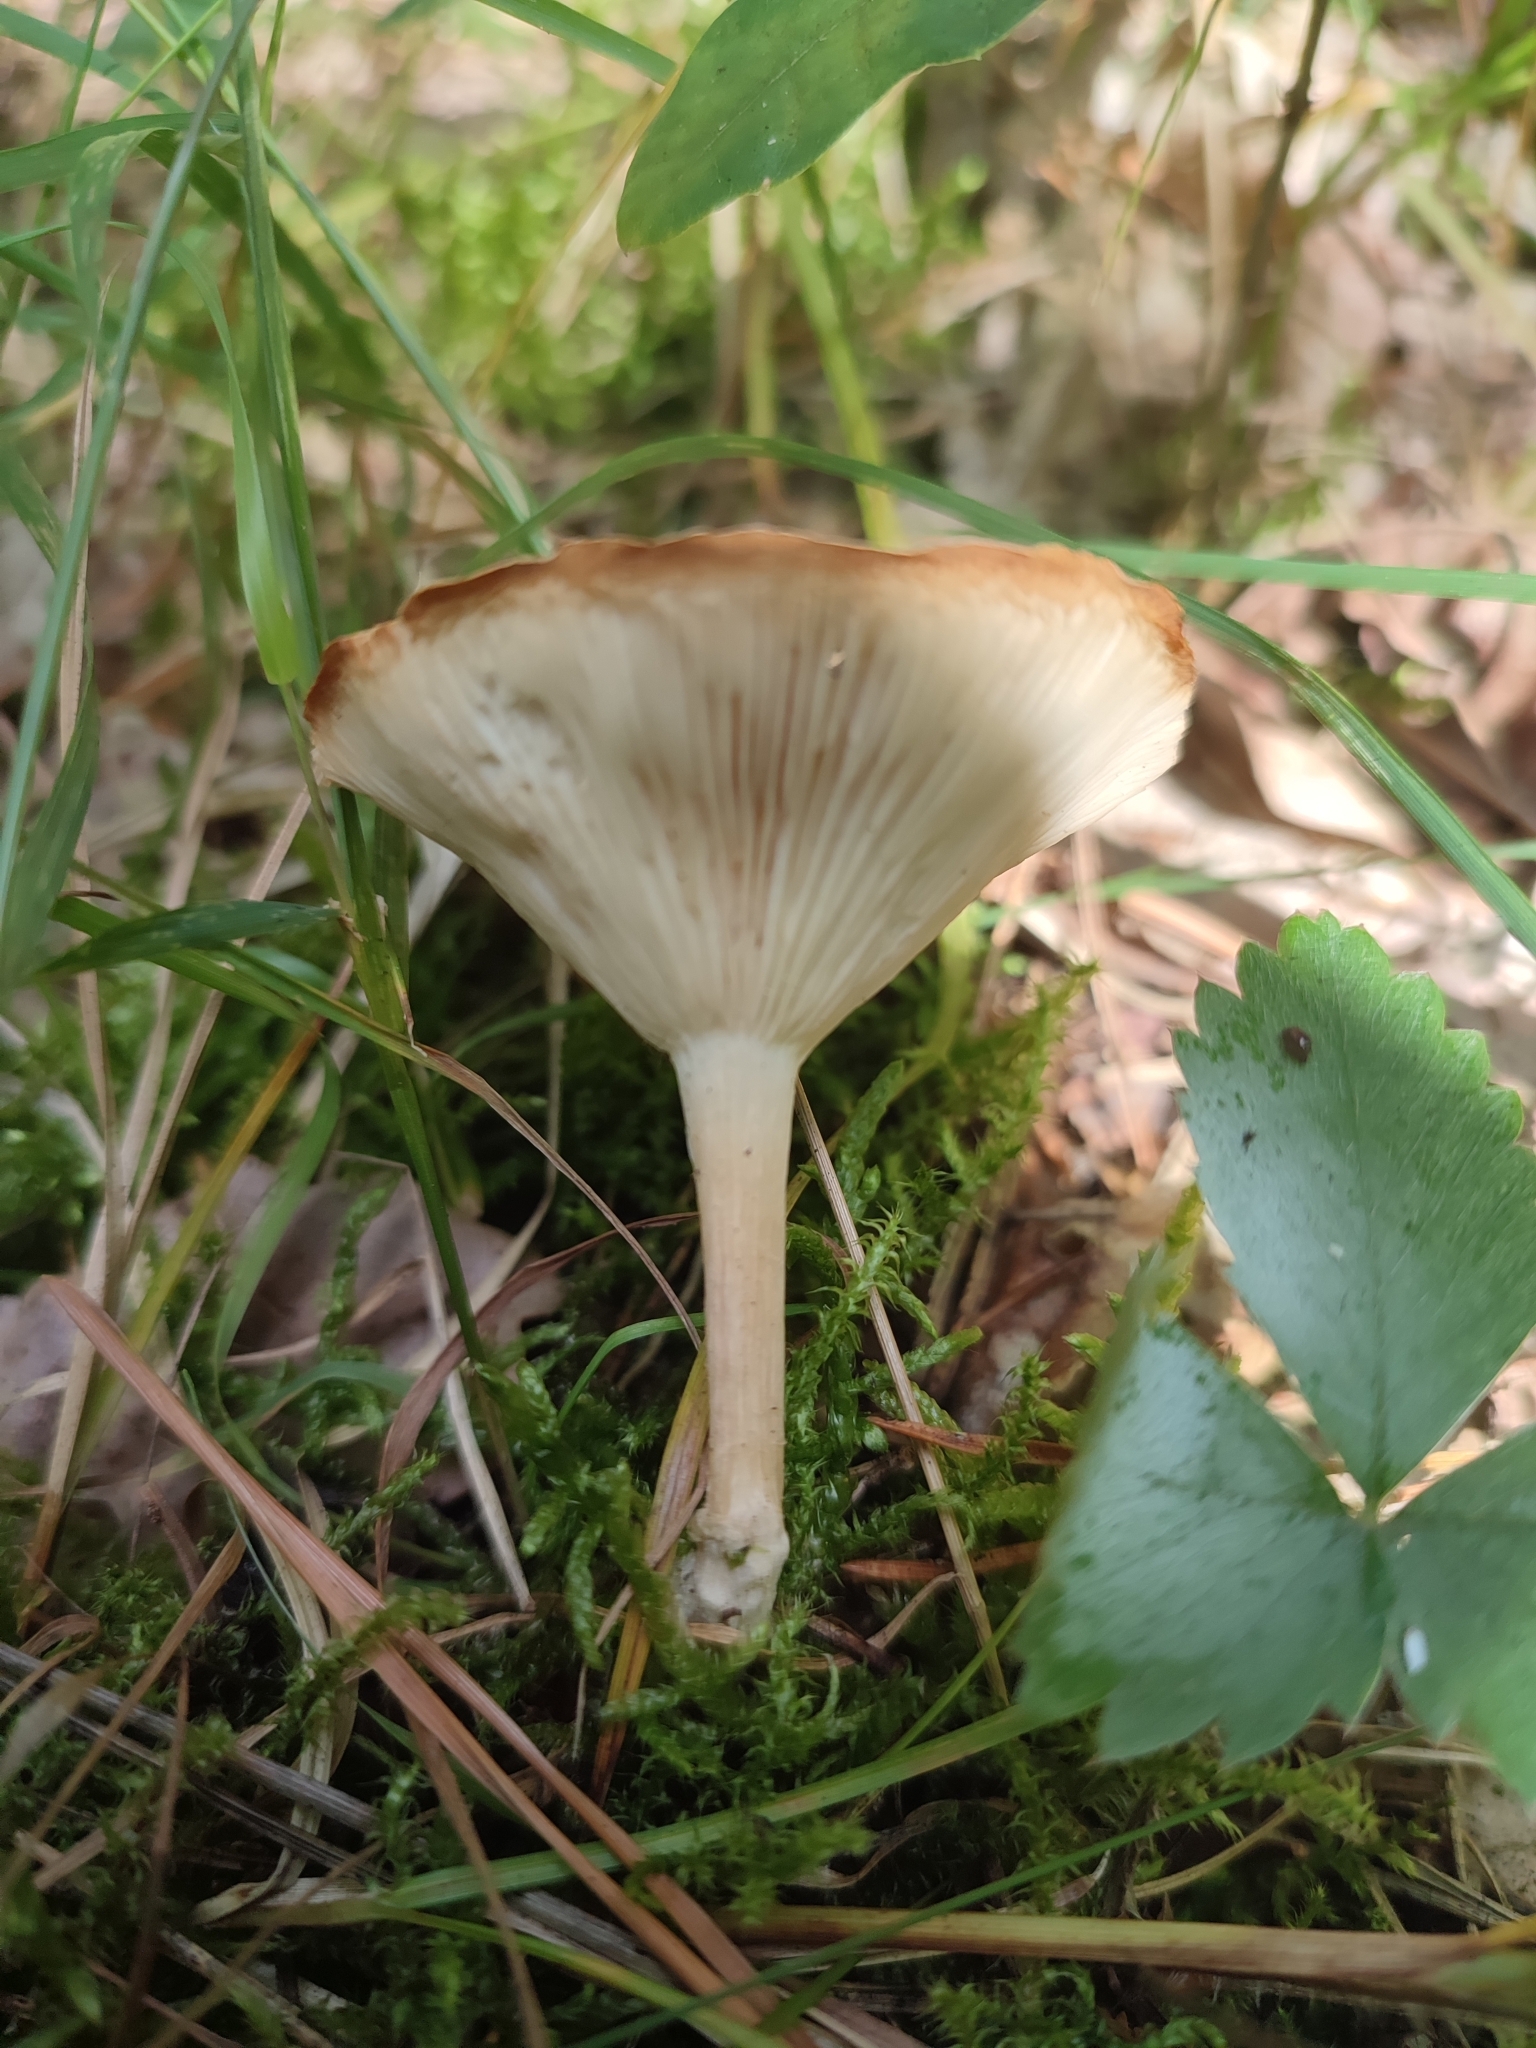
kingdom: Fungi
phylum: Basidiomycota
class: Agaricomycetes
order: Agaricales
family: Tricholomataceae
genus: Infundibulicybe
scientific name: Infundibulicybe gibba
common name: Common funnel
